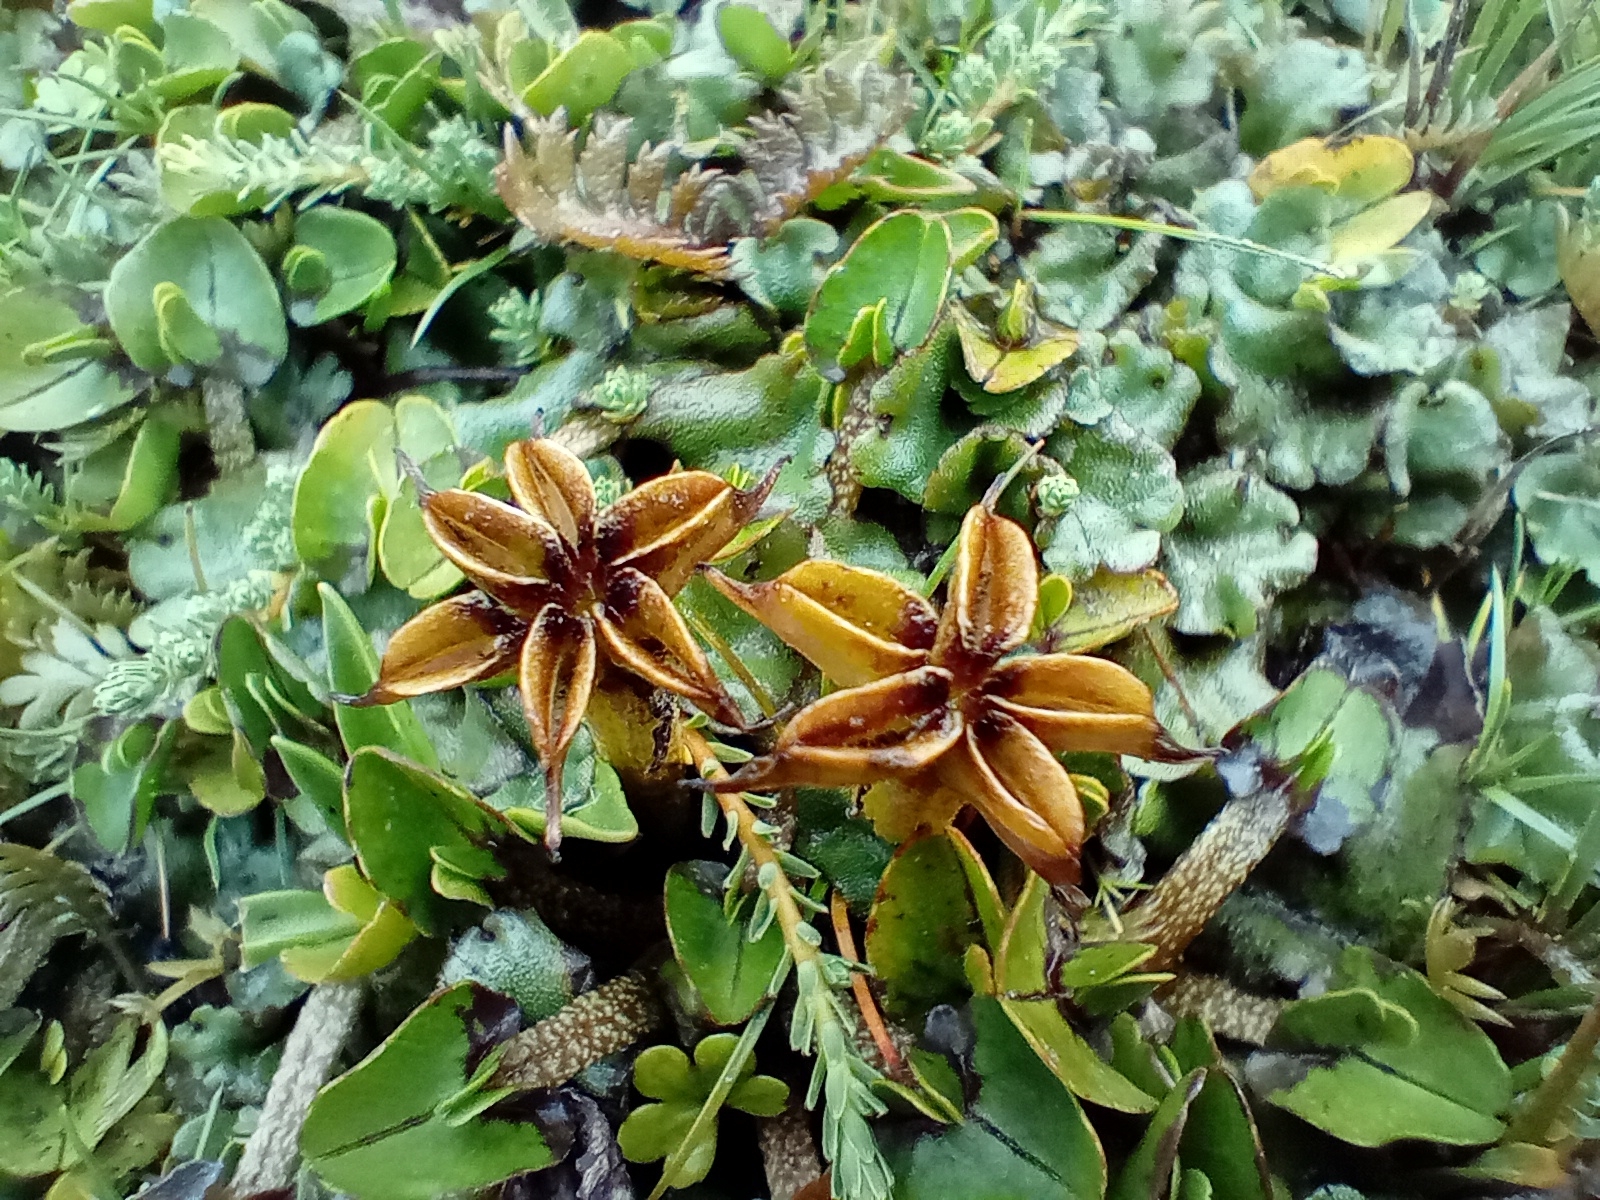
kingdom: Plantae
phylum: Tracheophyta
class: Magnoliopsida
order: Ranunculales
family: Ranunculaceae
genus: Caltha
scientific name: Caltha obtusa
